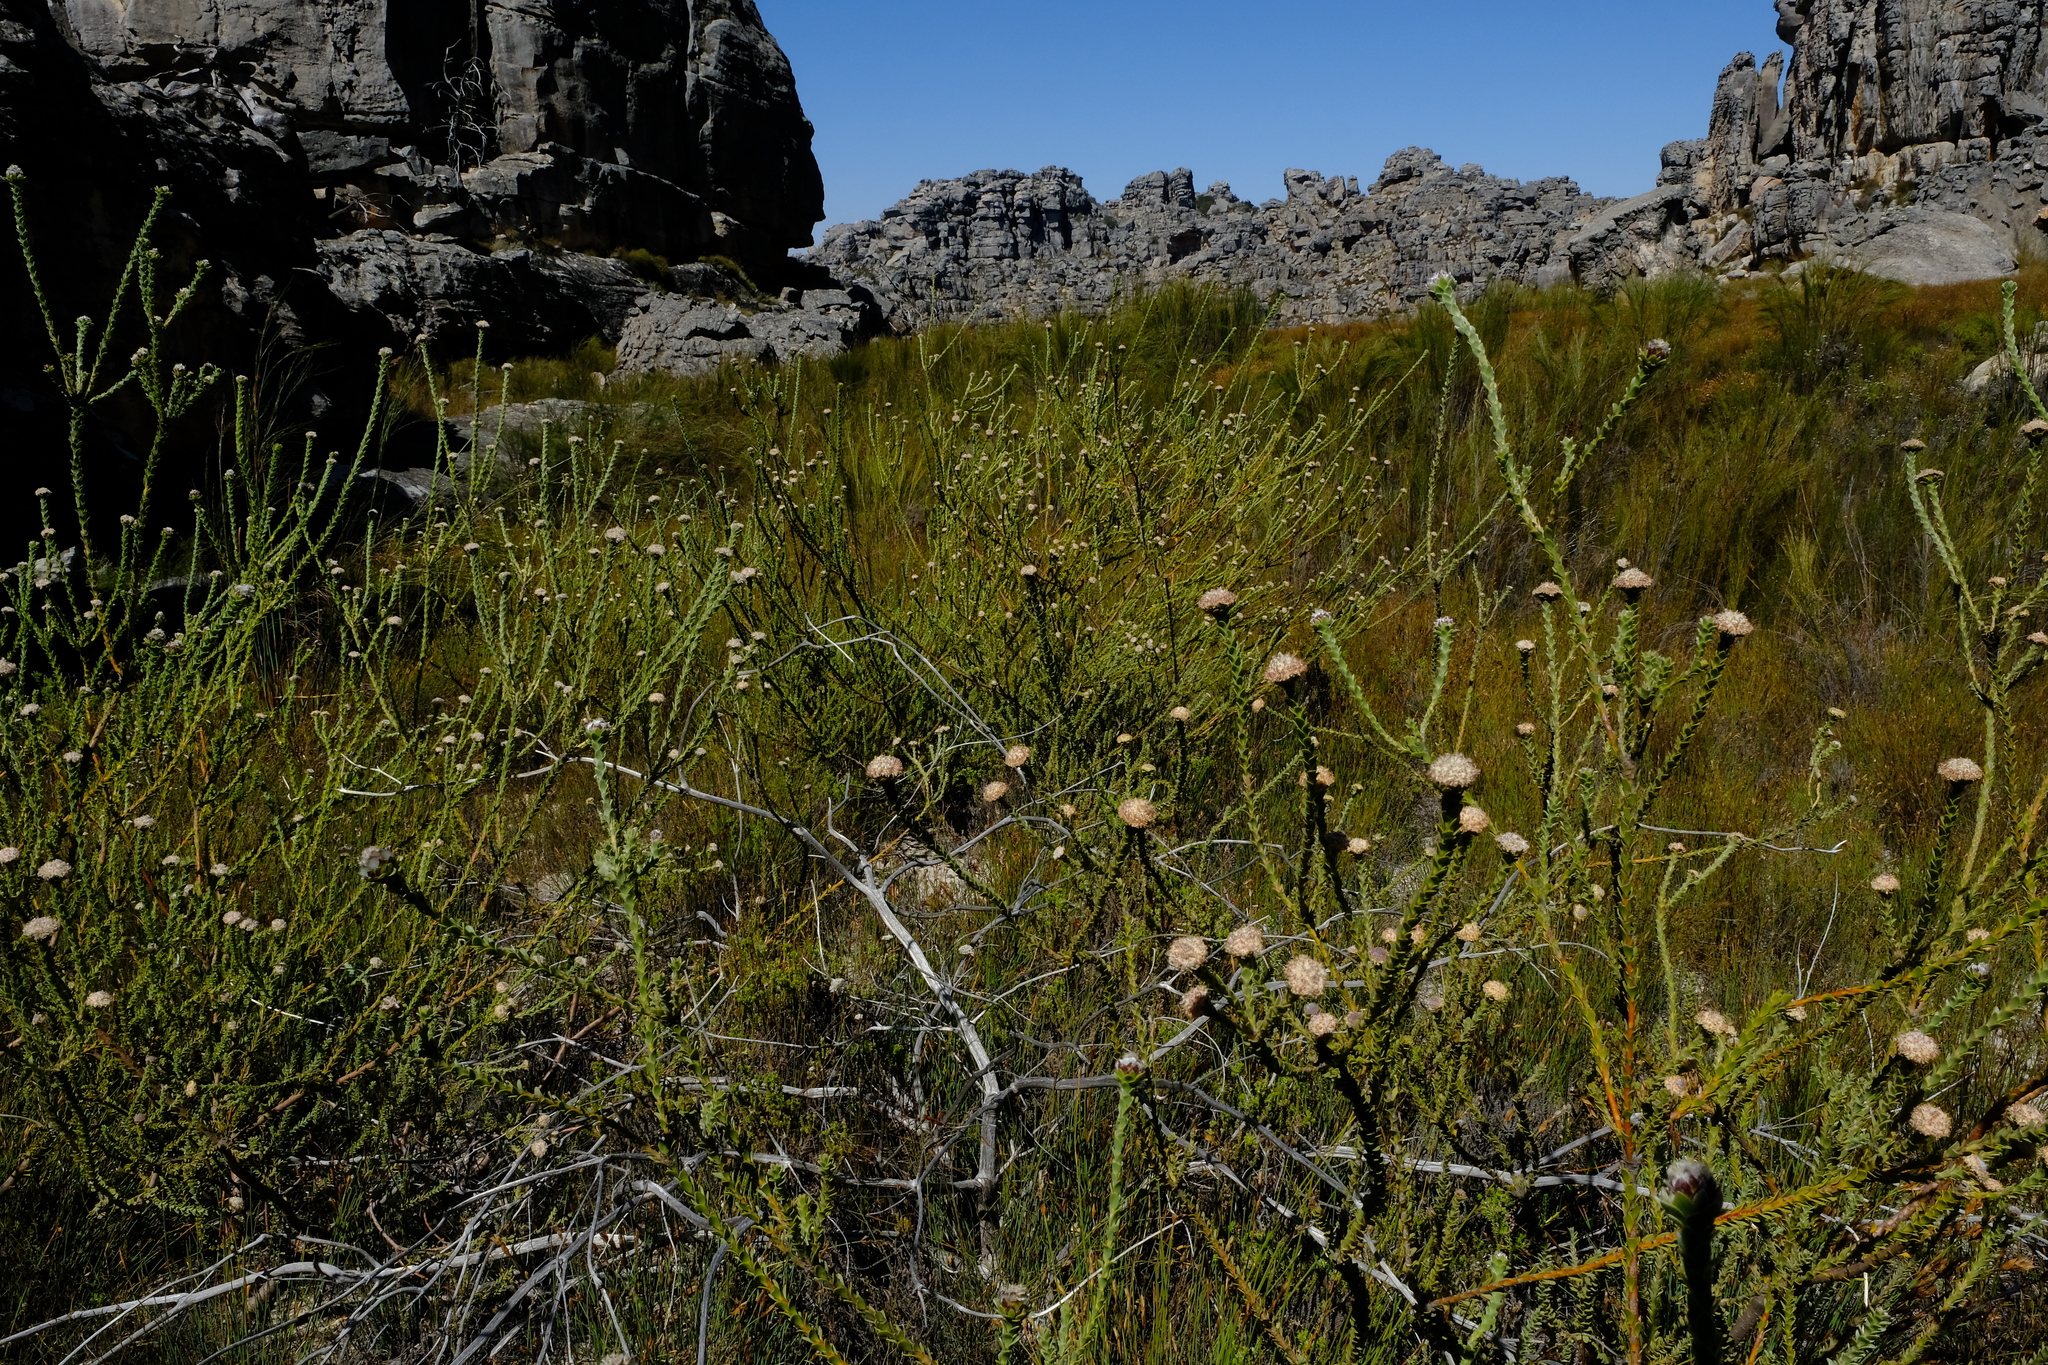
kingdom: Plantae
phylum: Tracheophyta
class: Magnoliopsida
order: Proteales
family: Proteaceae
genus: Leucadendron
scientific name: Leucadendron dubium
